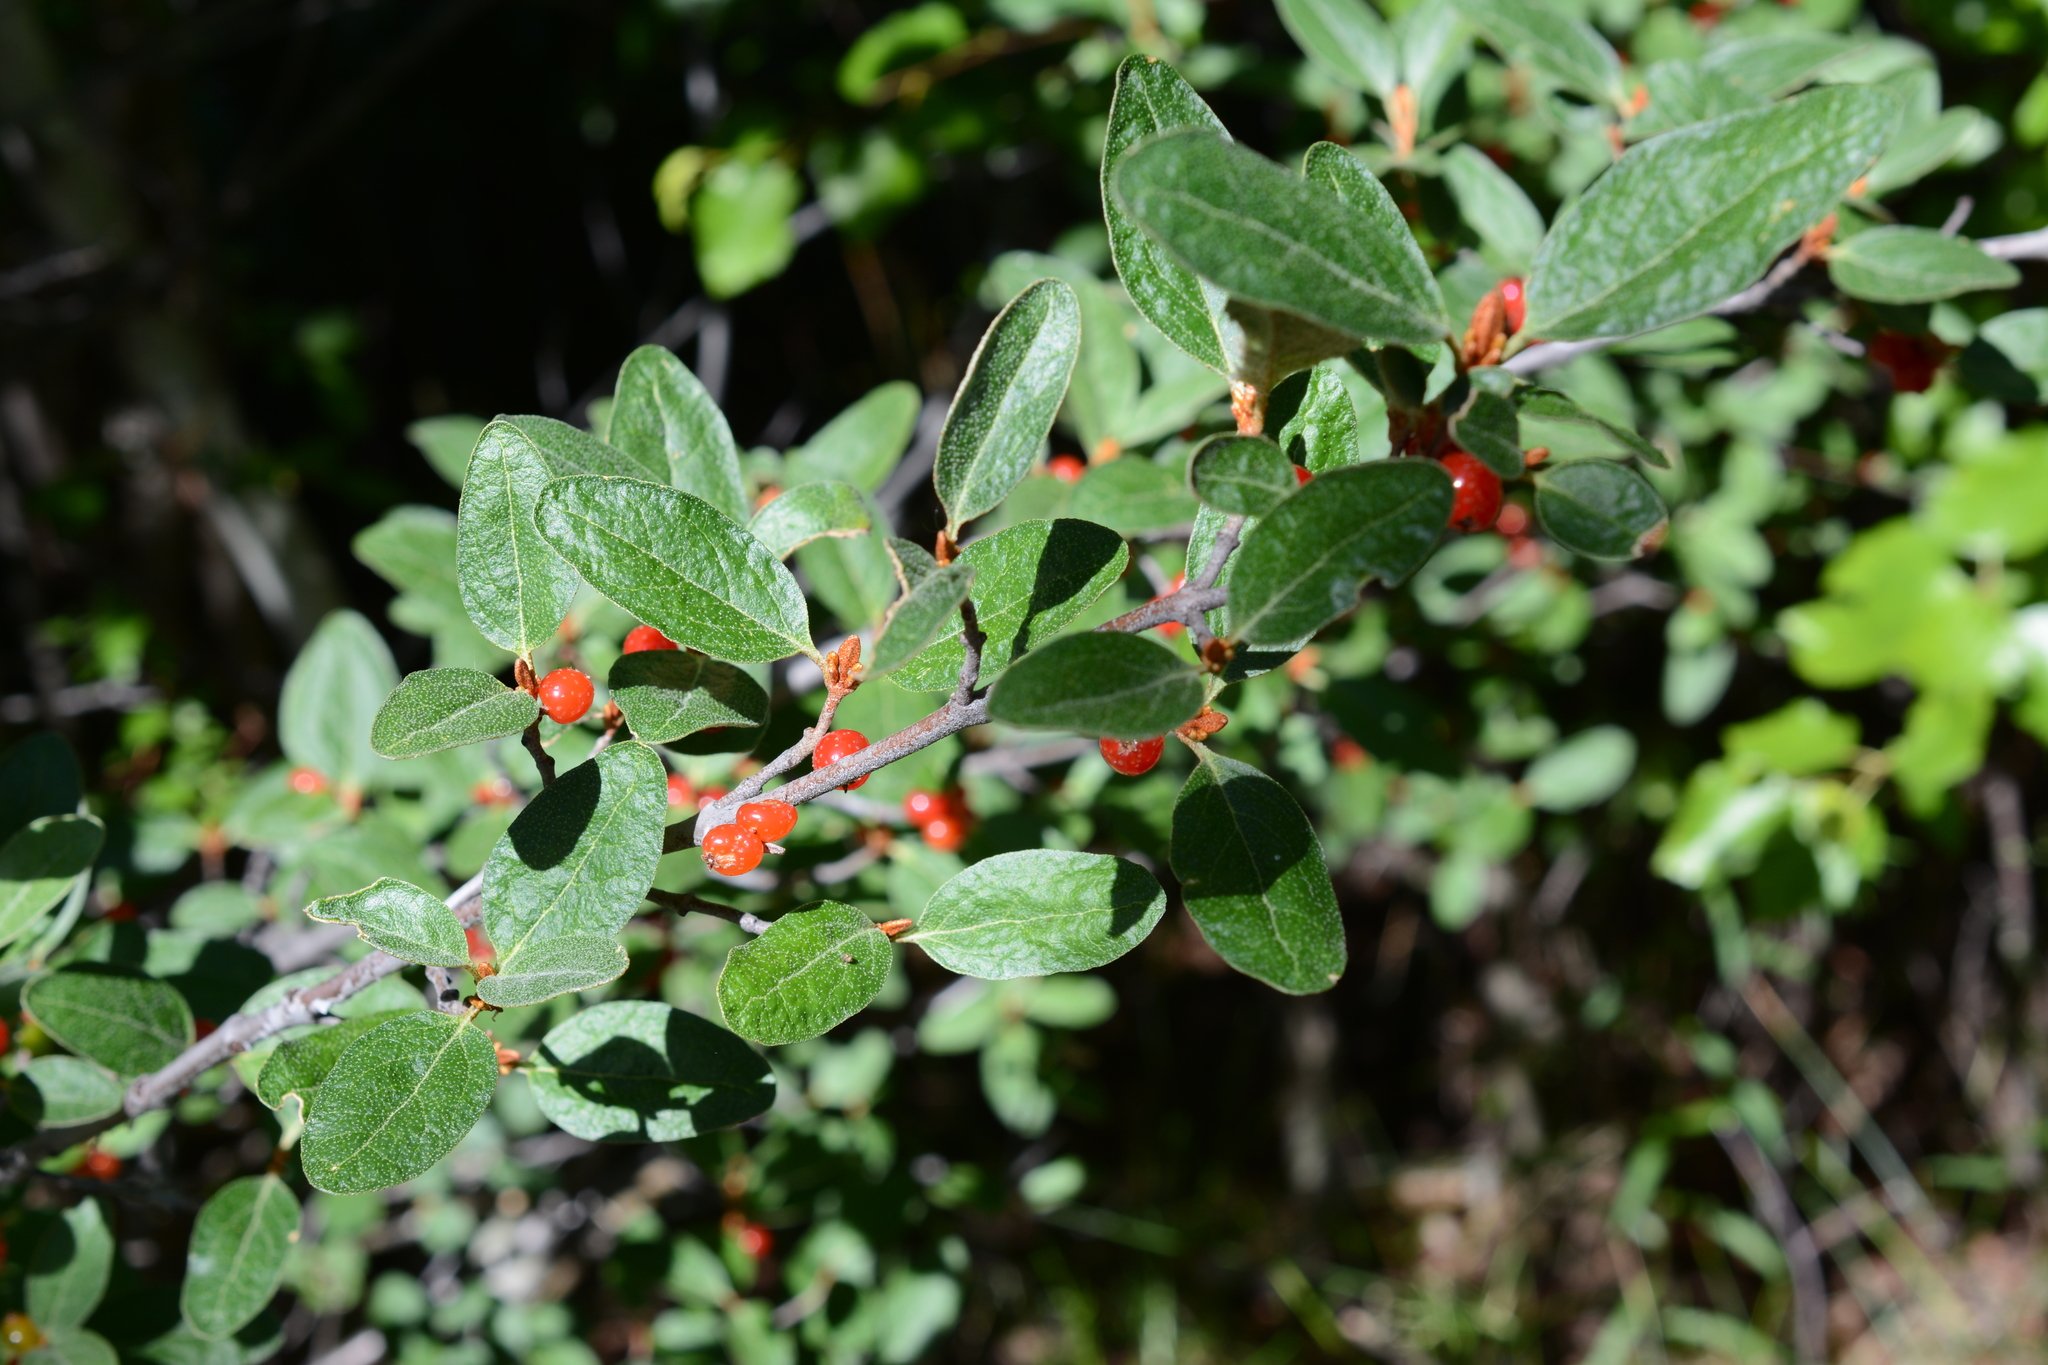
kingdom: Plantae
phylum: Tracheophyta
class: Magnoliopsida
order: Rosales
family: Elaeagnaceae
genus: Shepherdia
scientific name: Shepherdia canadensis
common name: Soapberry
